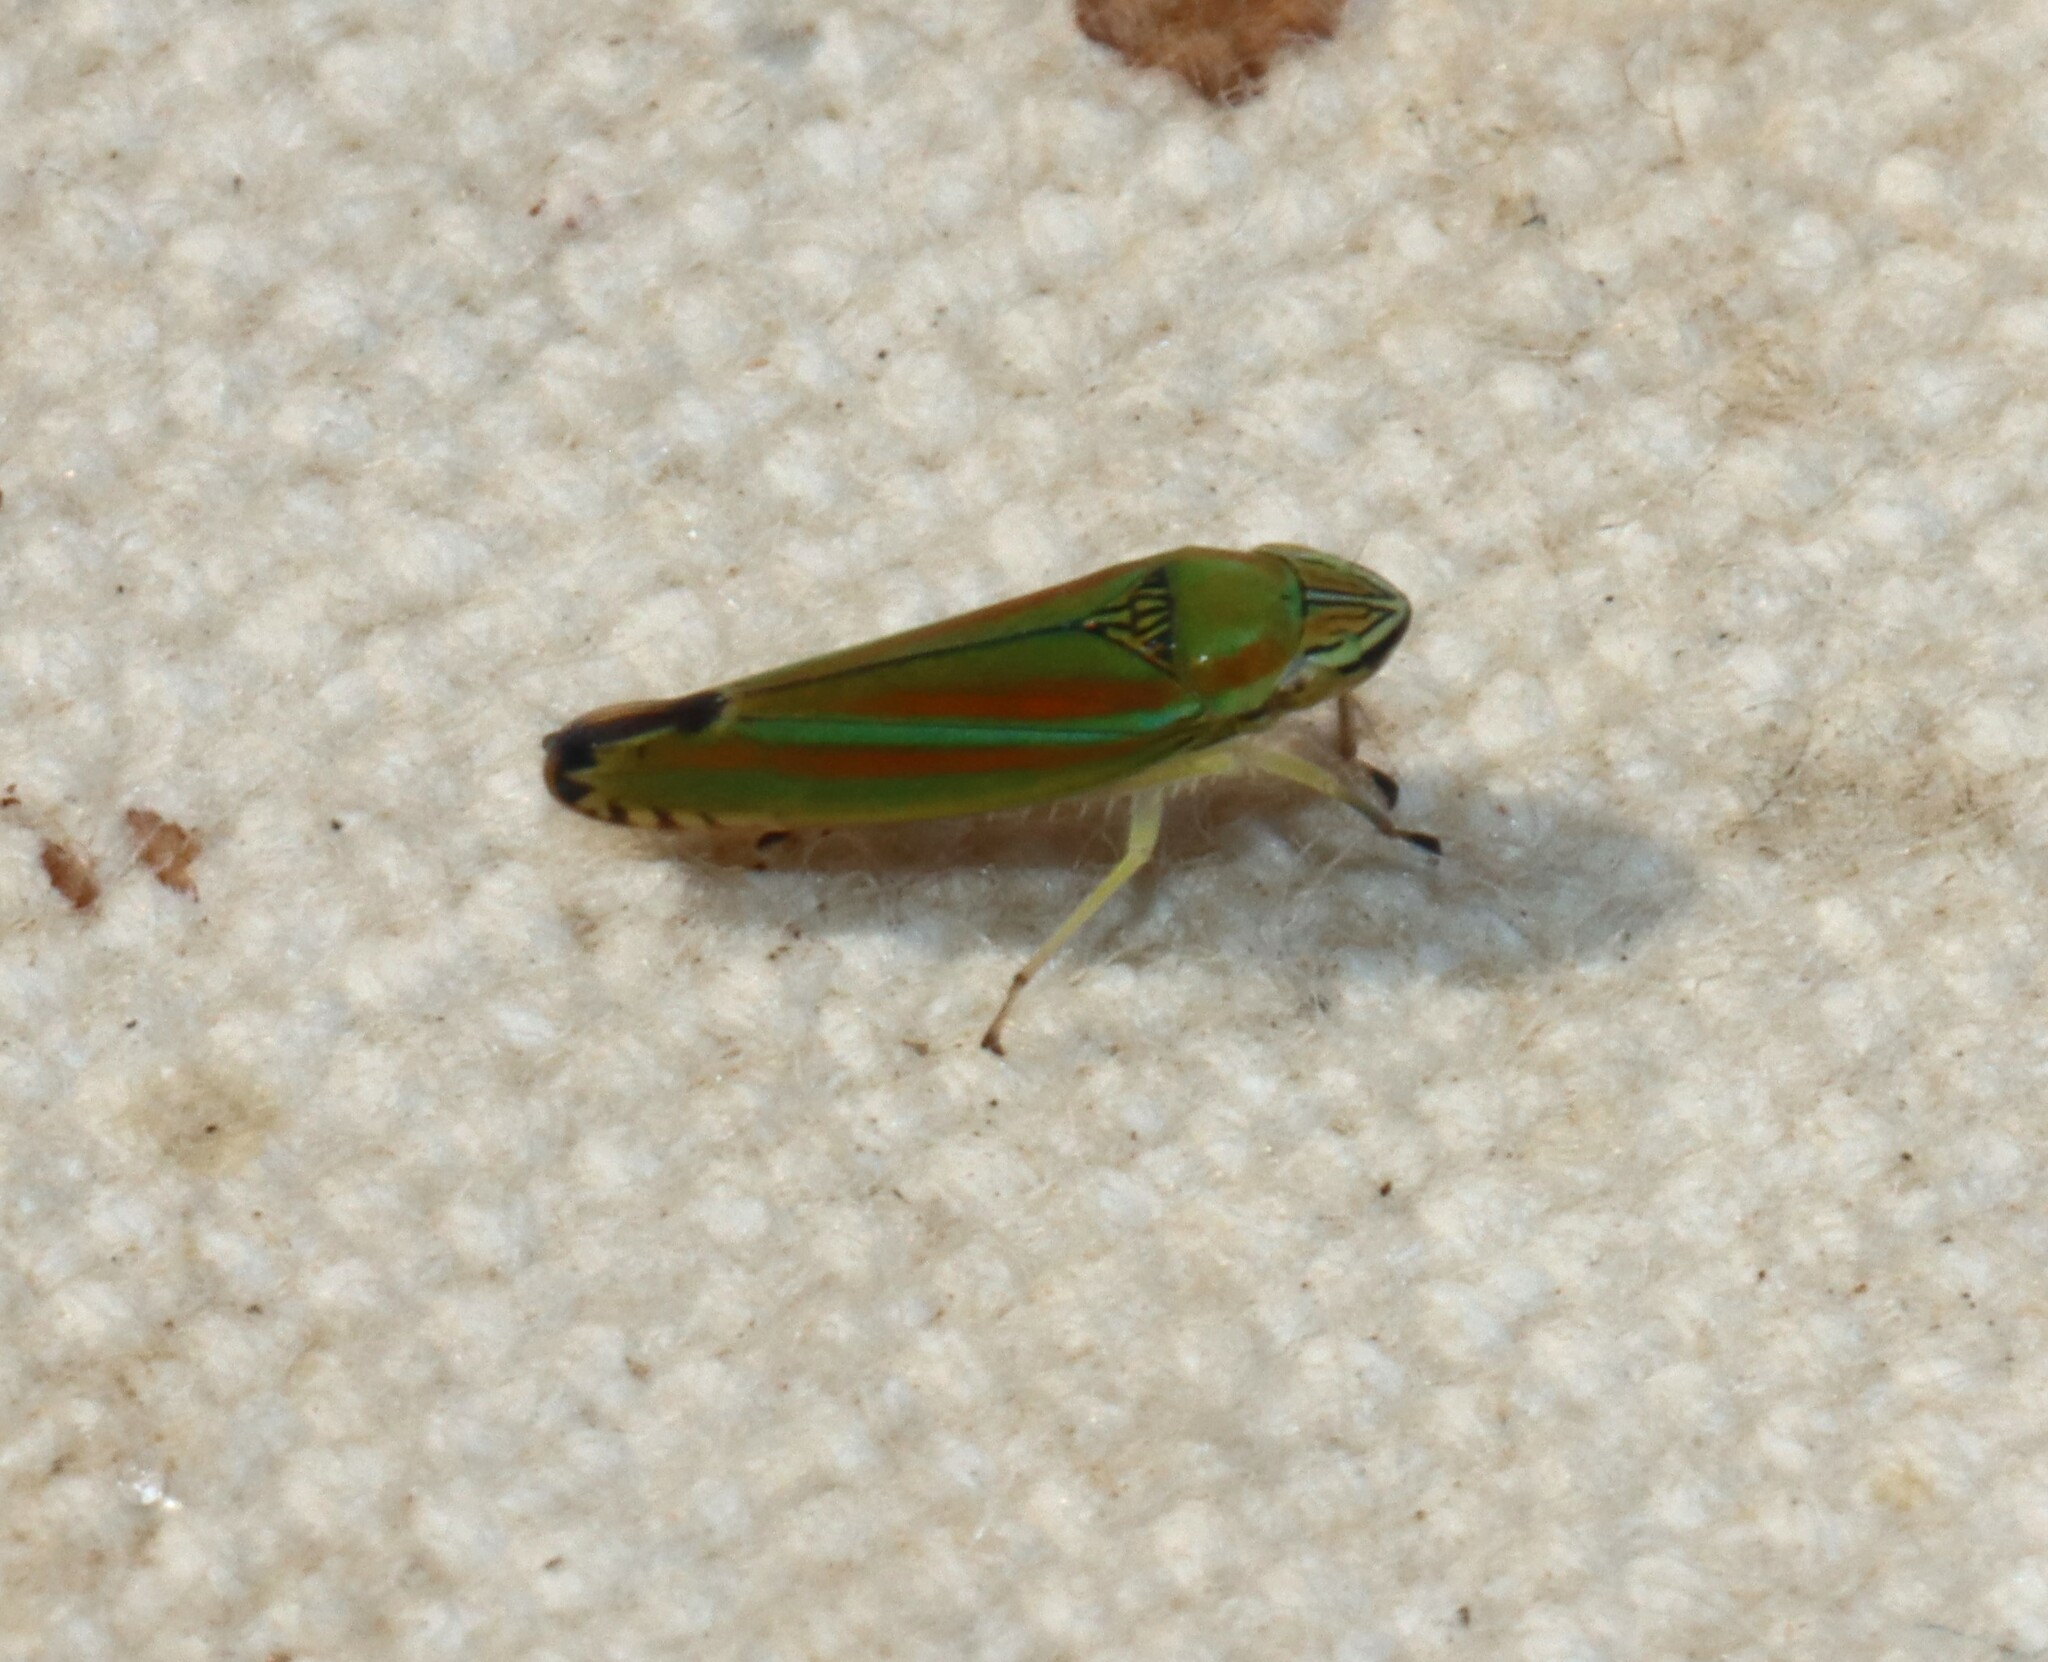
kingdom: Animalia
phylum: Arthropoda
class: Insecta
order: Hemiptera
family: Cicadellidae
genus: Graphocephala
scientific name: Graphocephala versuta
